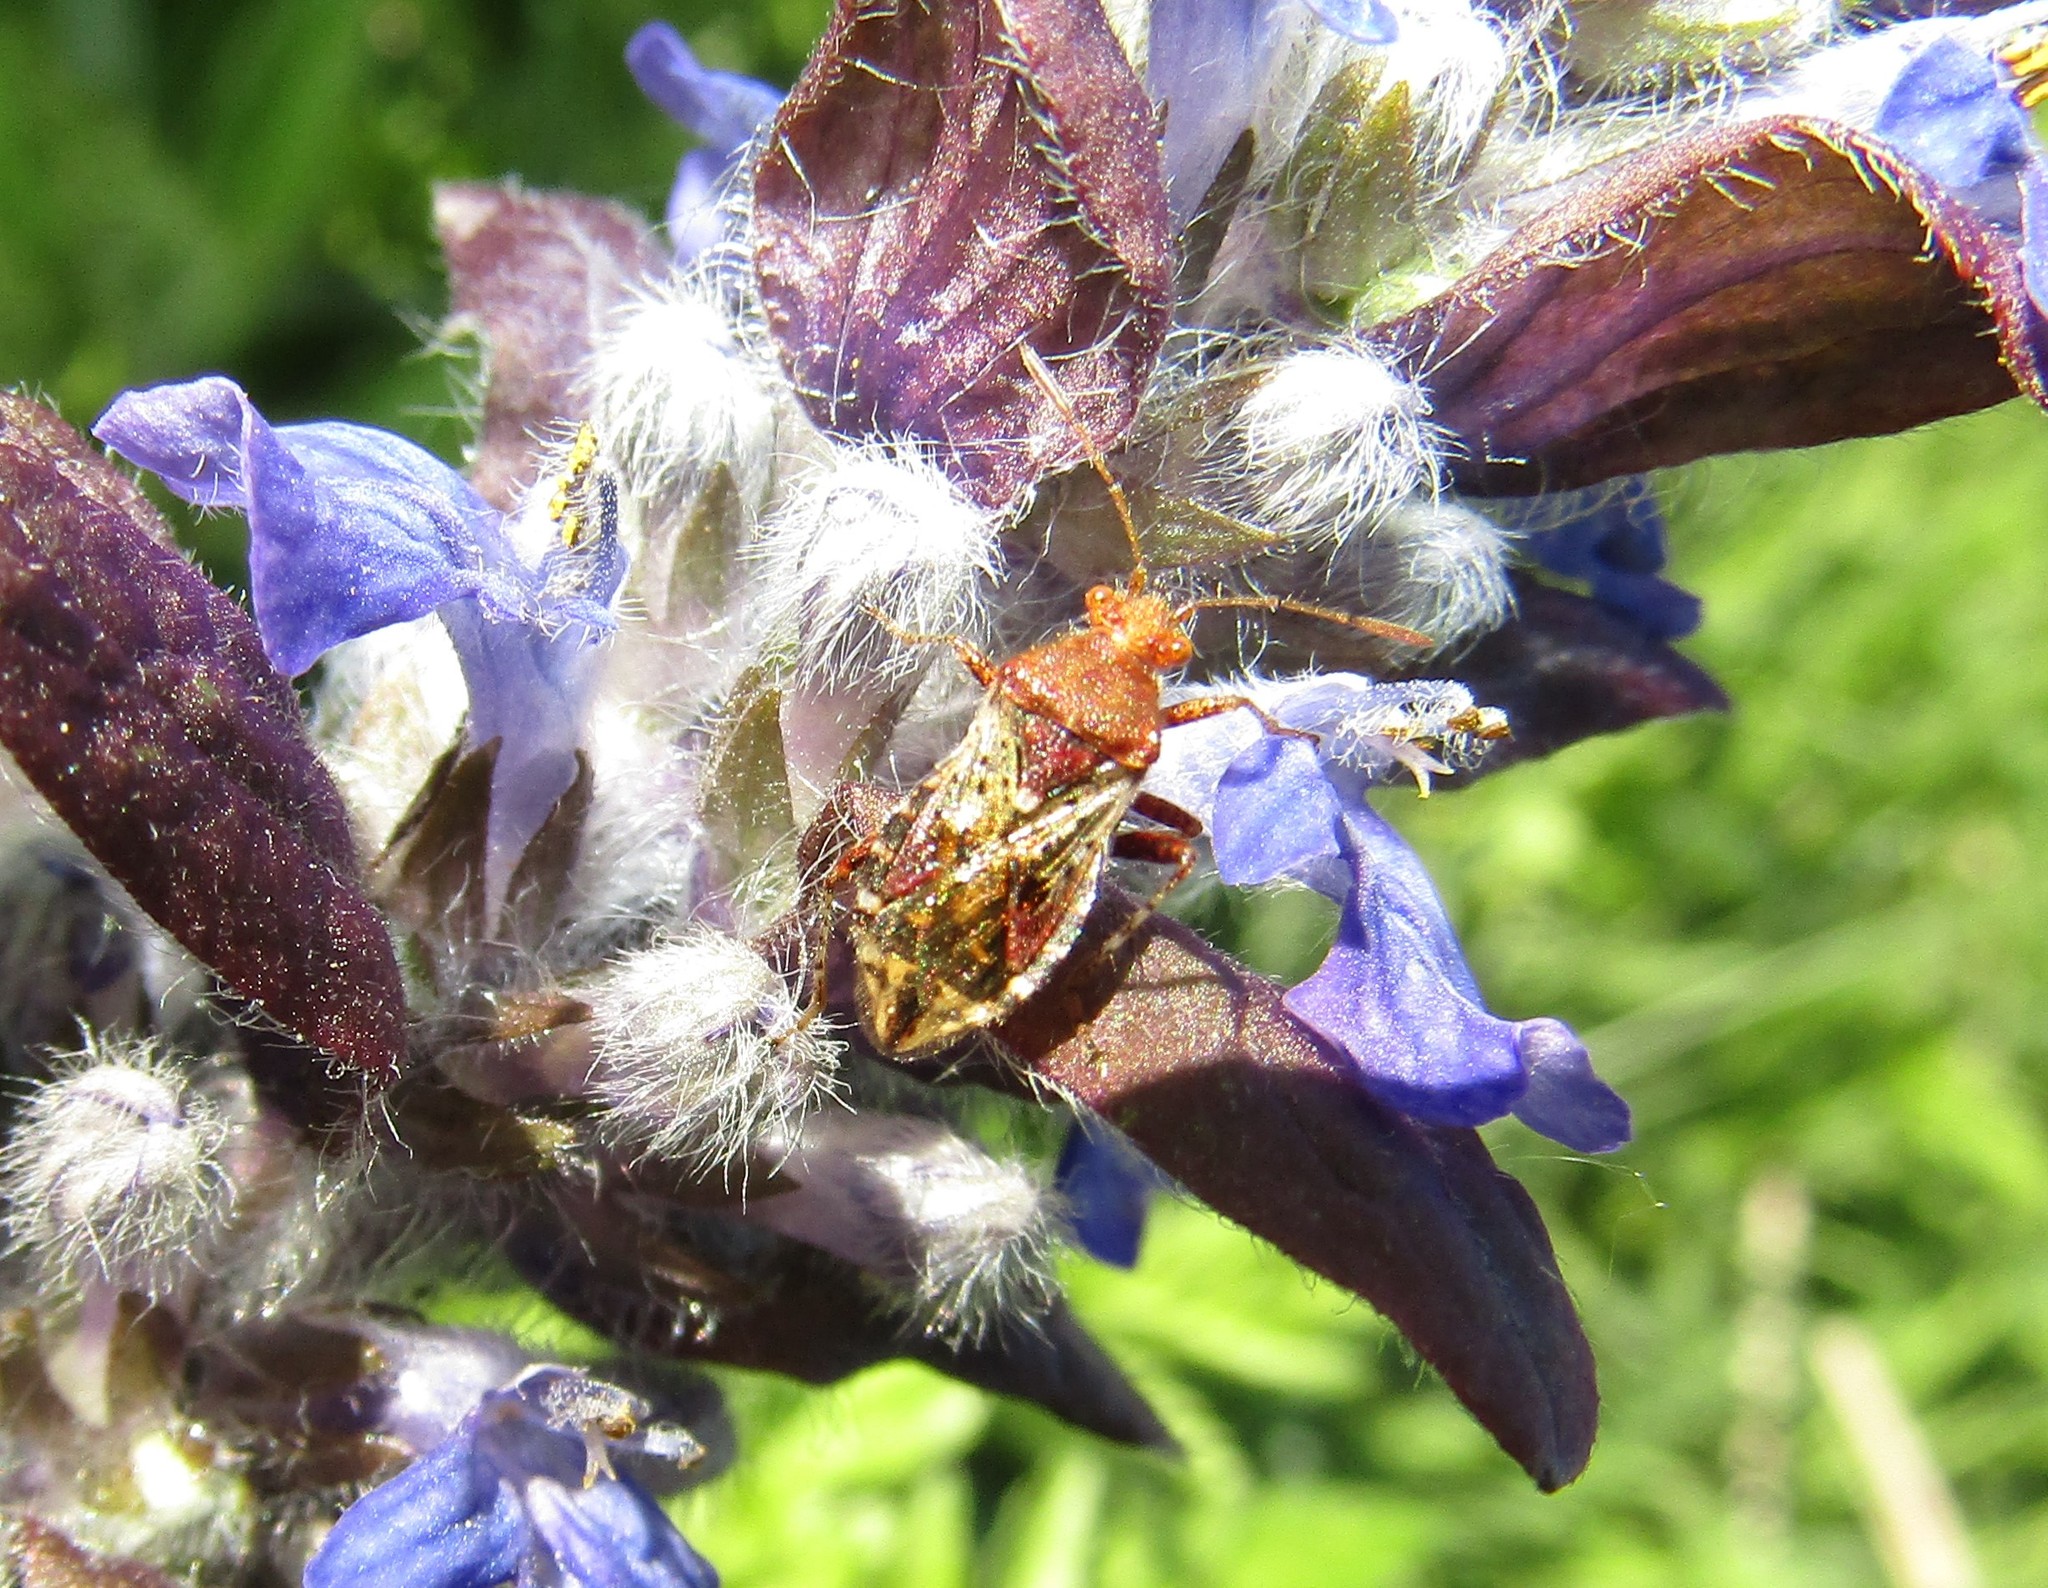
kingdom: Animalia
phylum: Arthropoda
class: Insecta
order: Hemiptera
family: Rhopalidae
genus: Rhopalus
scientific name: Rhopalus subrufus
